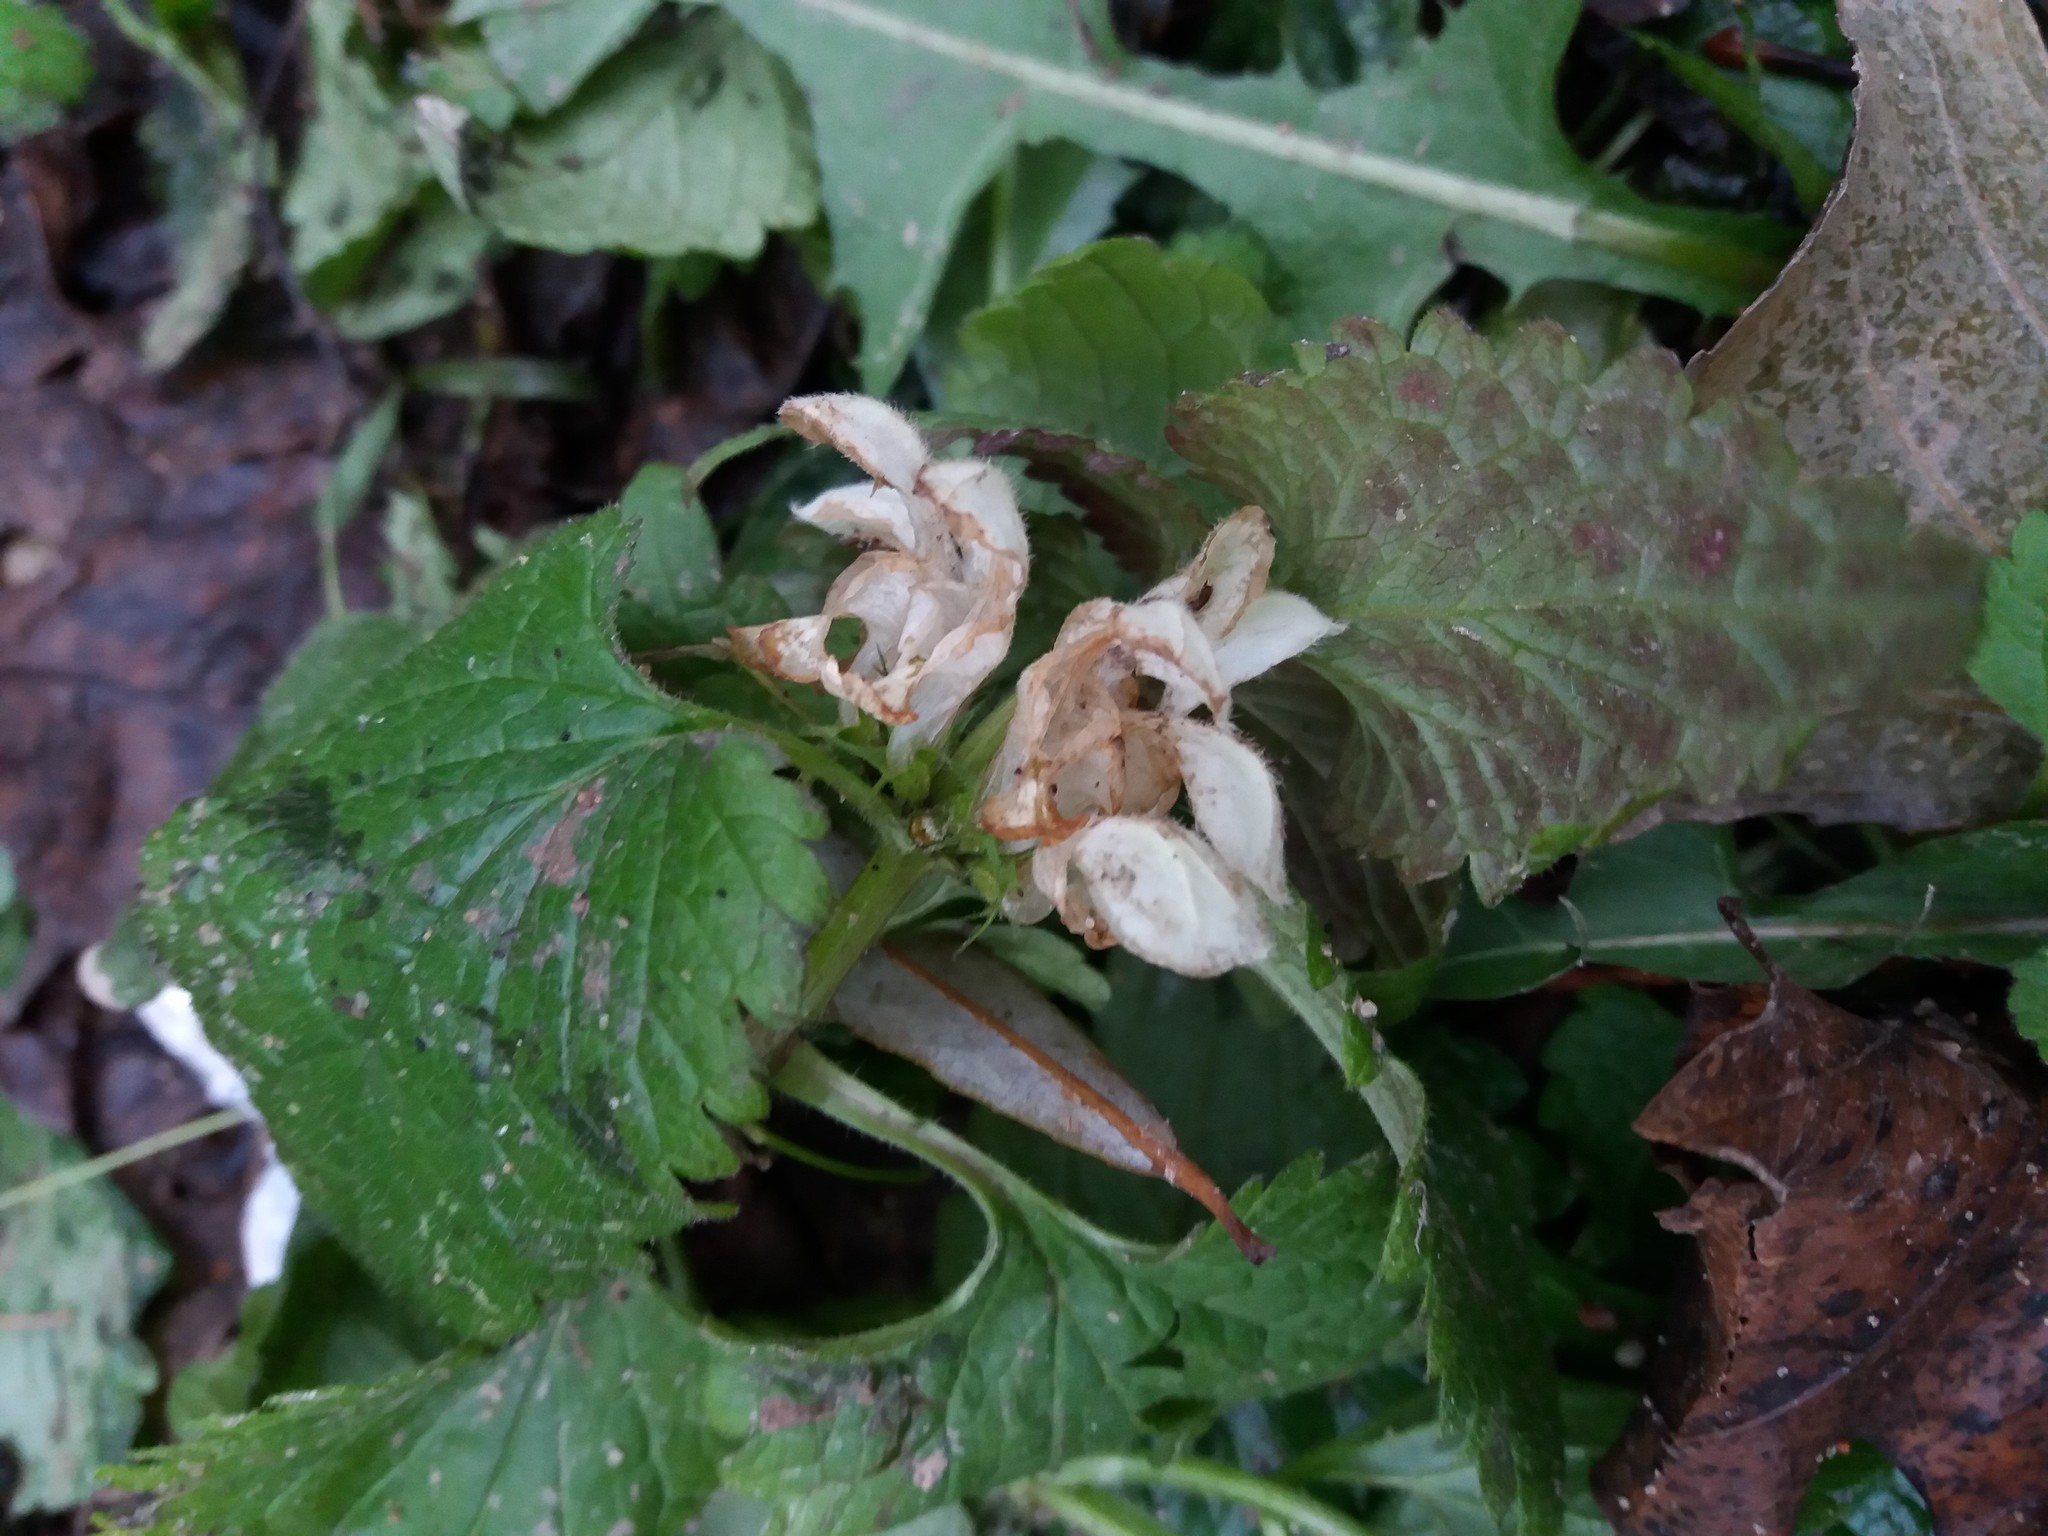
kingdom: Plantae
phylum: Tracheophyta
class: Magnoliopsida
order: Lamiales
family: Lamiaceae
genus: Lamium
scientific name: Lamium album
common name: White dead-nettle
